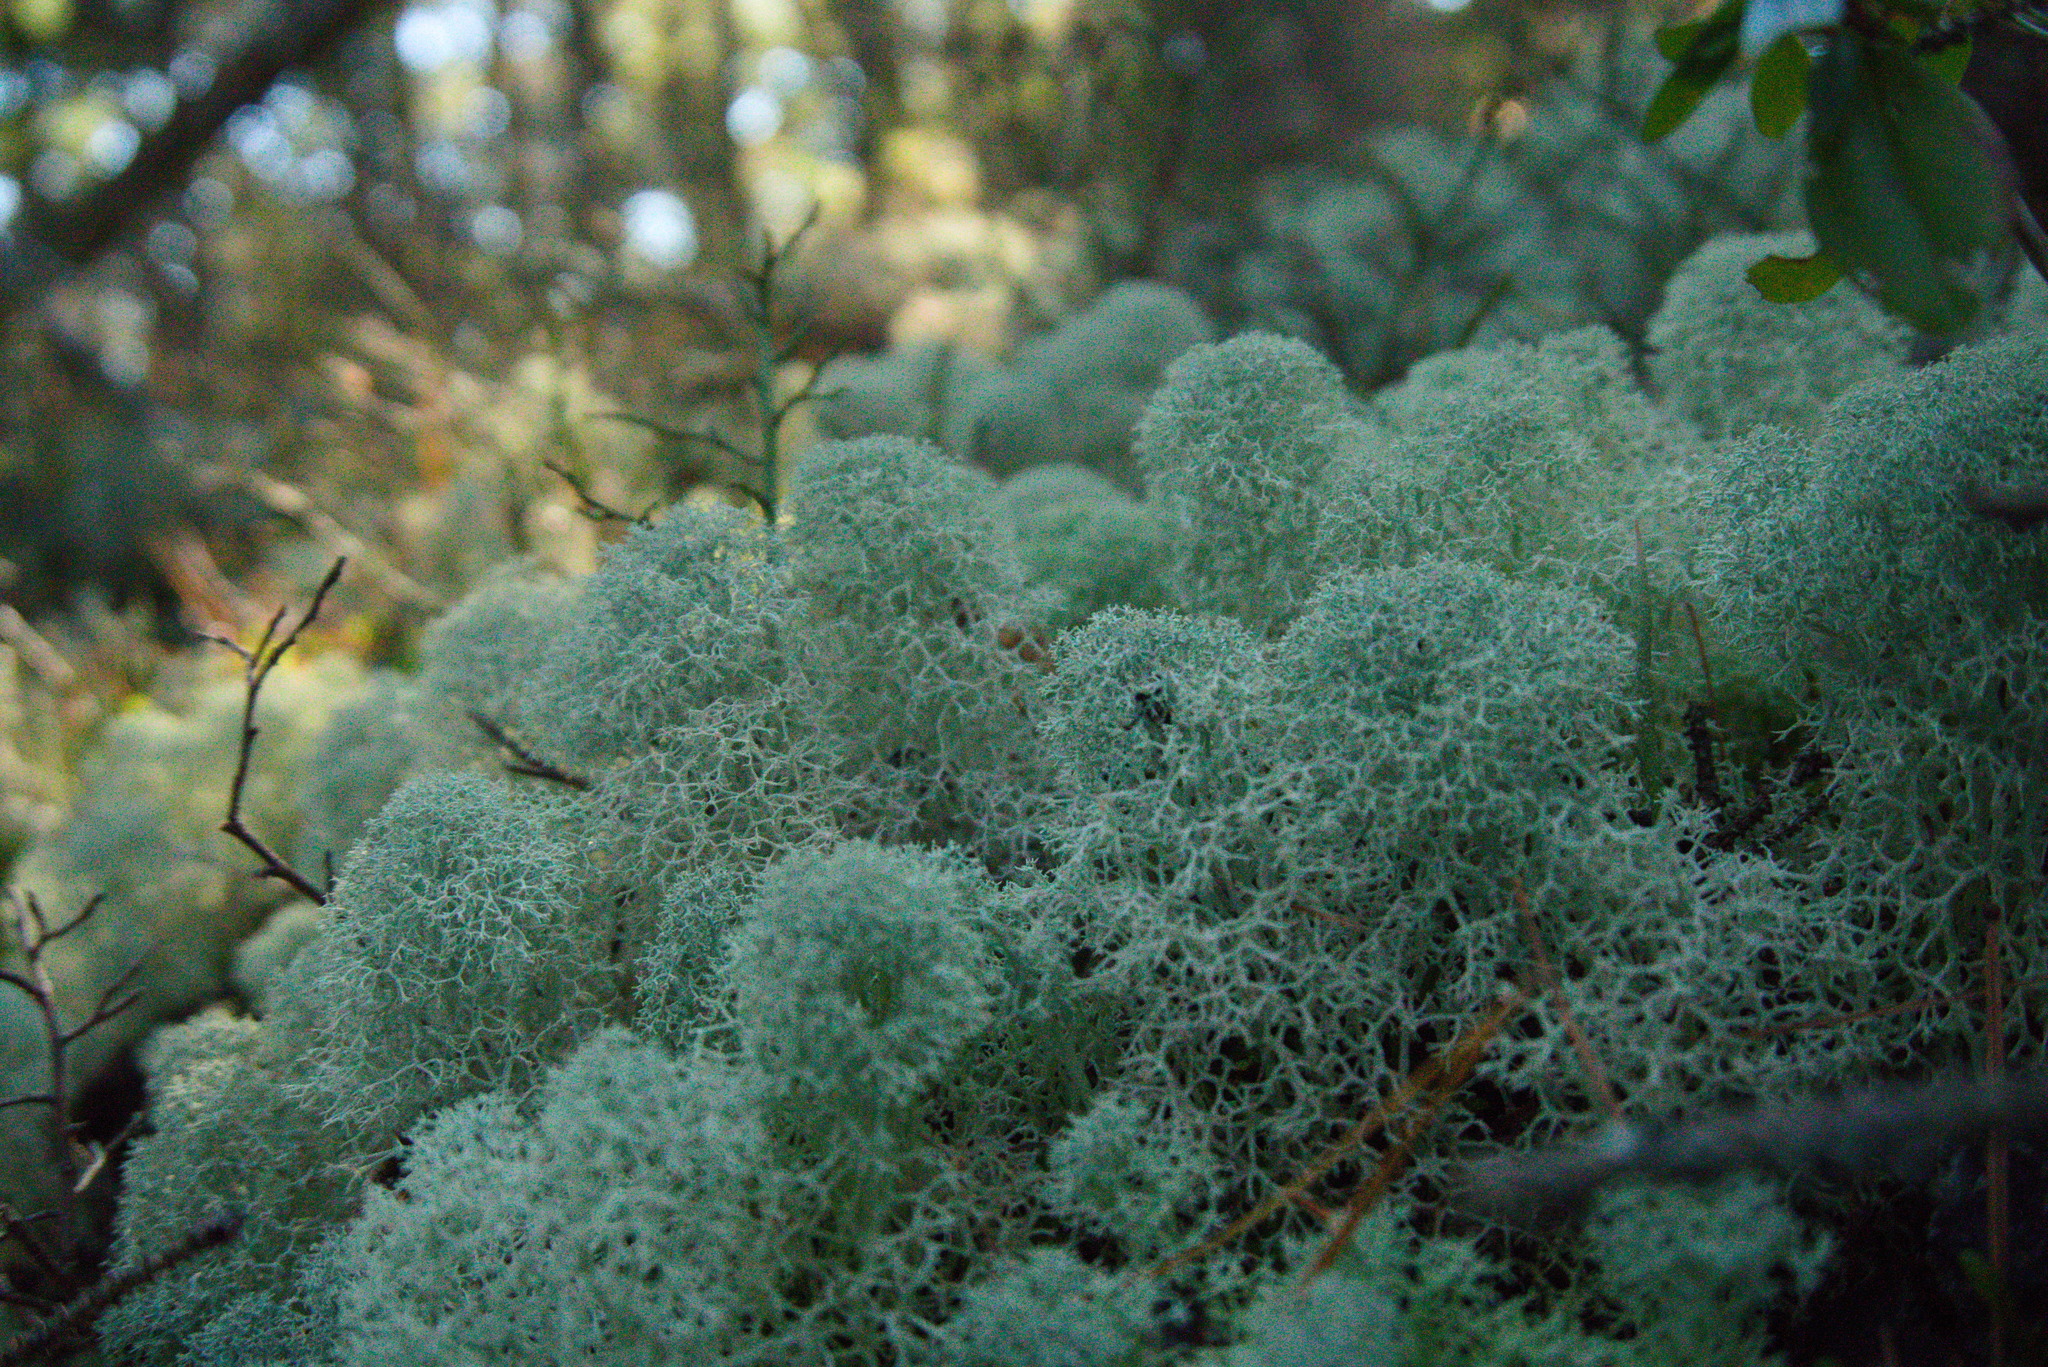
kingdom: Fungi
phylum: Ascomycota
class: Lecanoromycetes
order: Lecanorales
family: Cladoniaceae
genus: Cladonia
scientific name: Cladonia stellaris
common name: Star-tipped reindeer lichen
